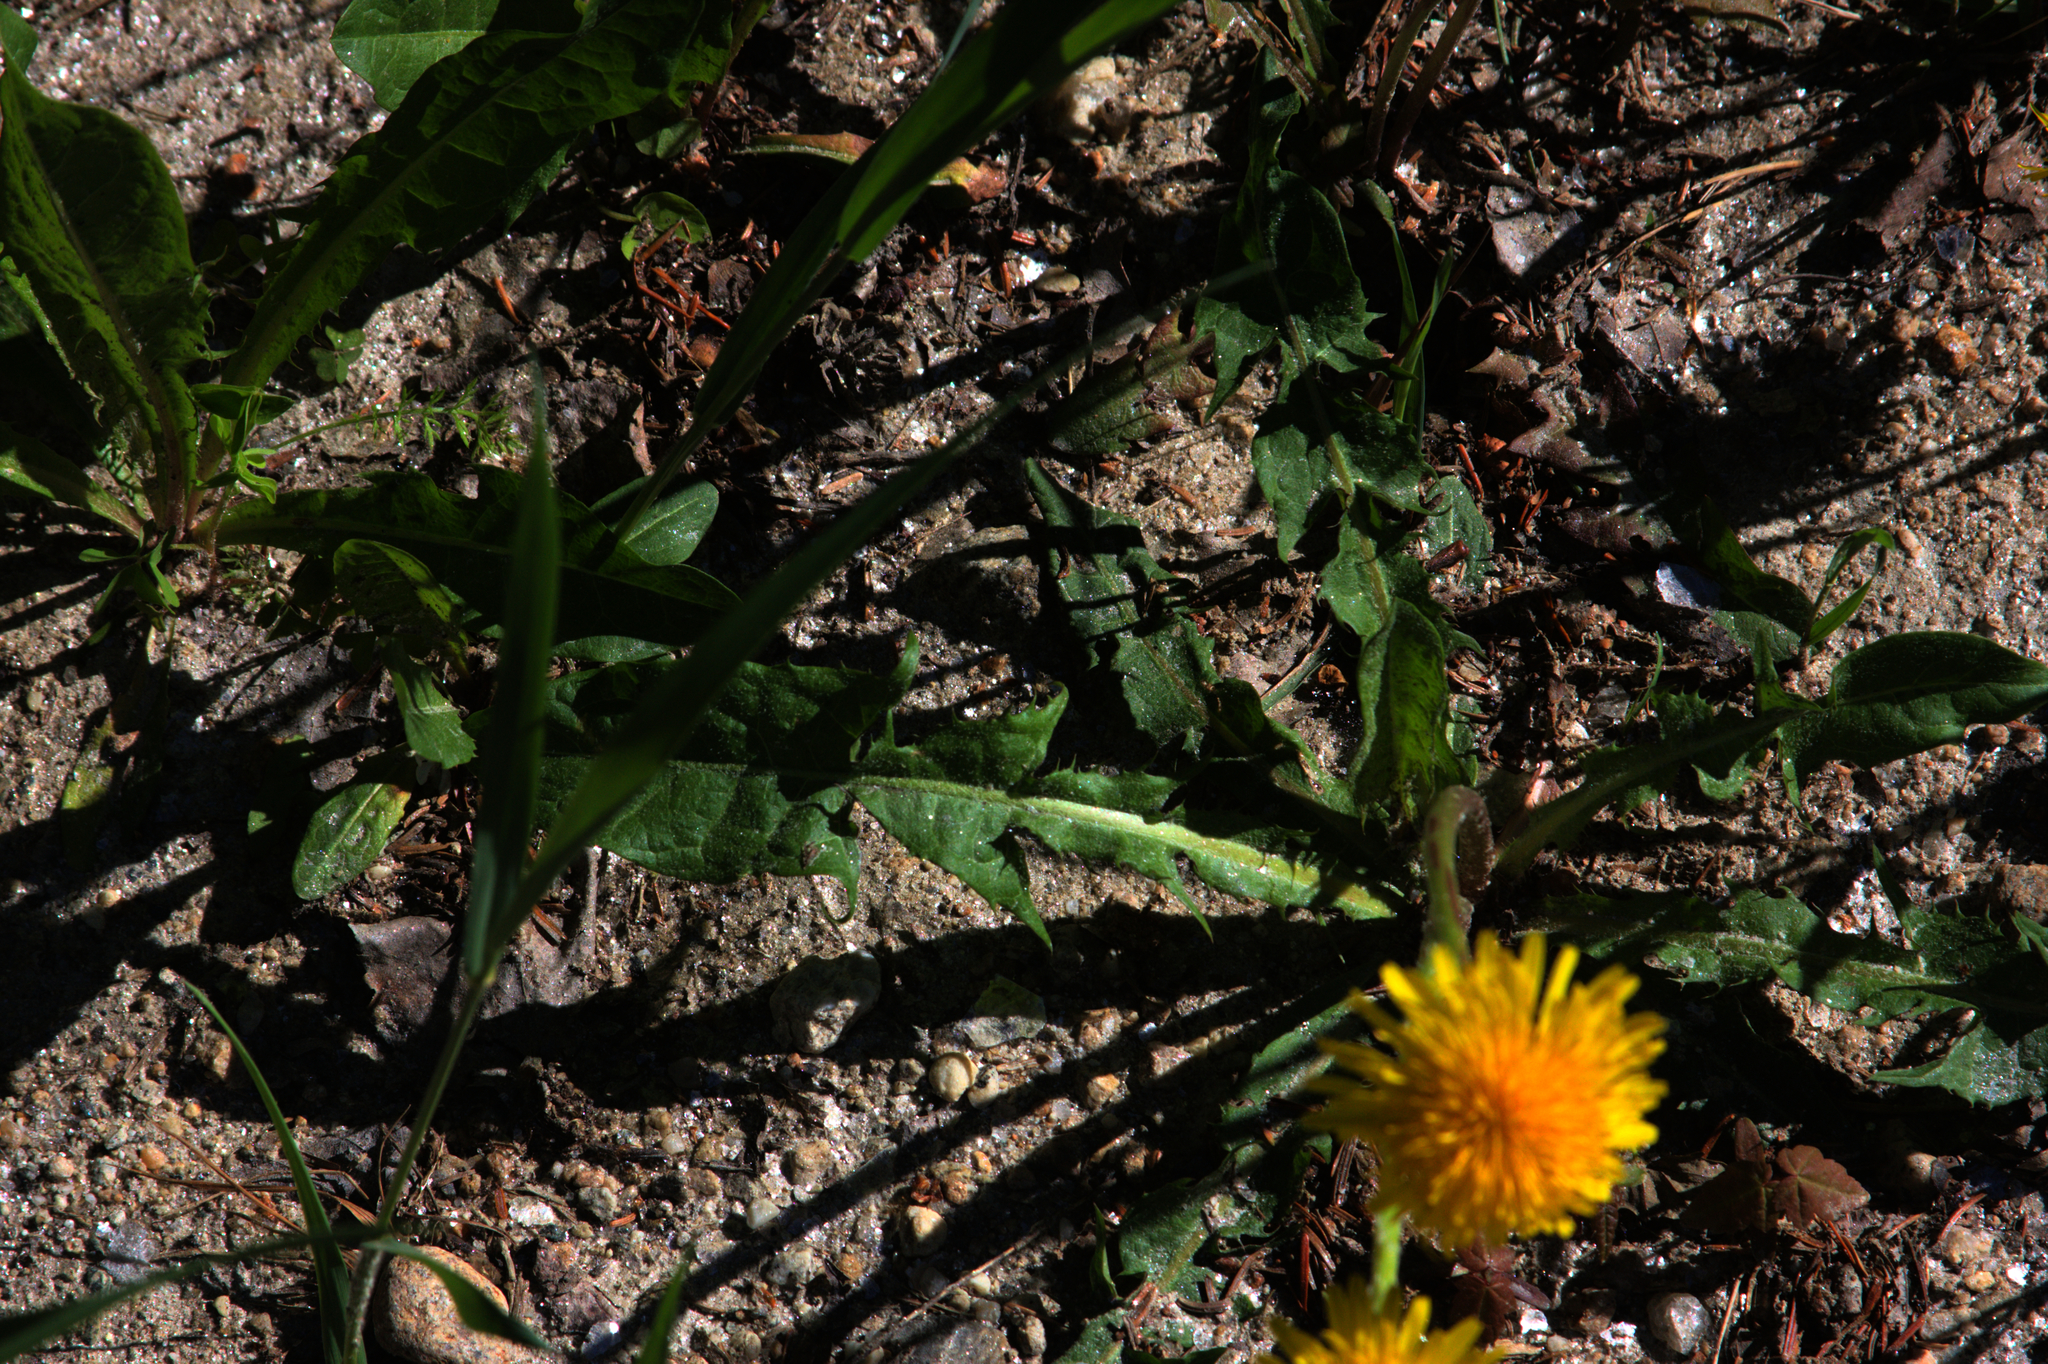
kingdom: Plantae
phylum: Tracheophyta
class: Magnoliopsida
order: Asterales
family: Asteraceae
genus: Taraxacum
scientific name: Taraxacum officinale
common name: Common dandelion
